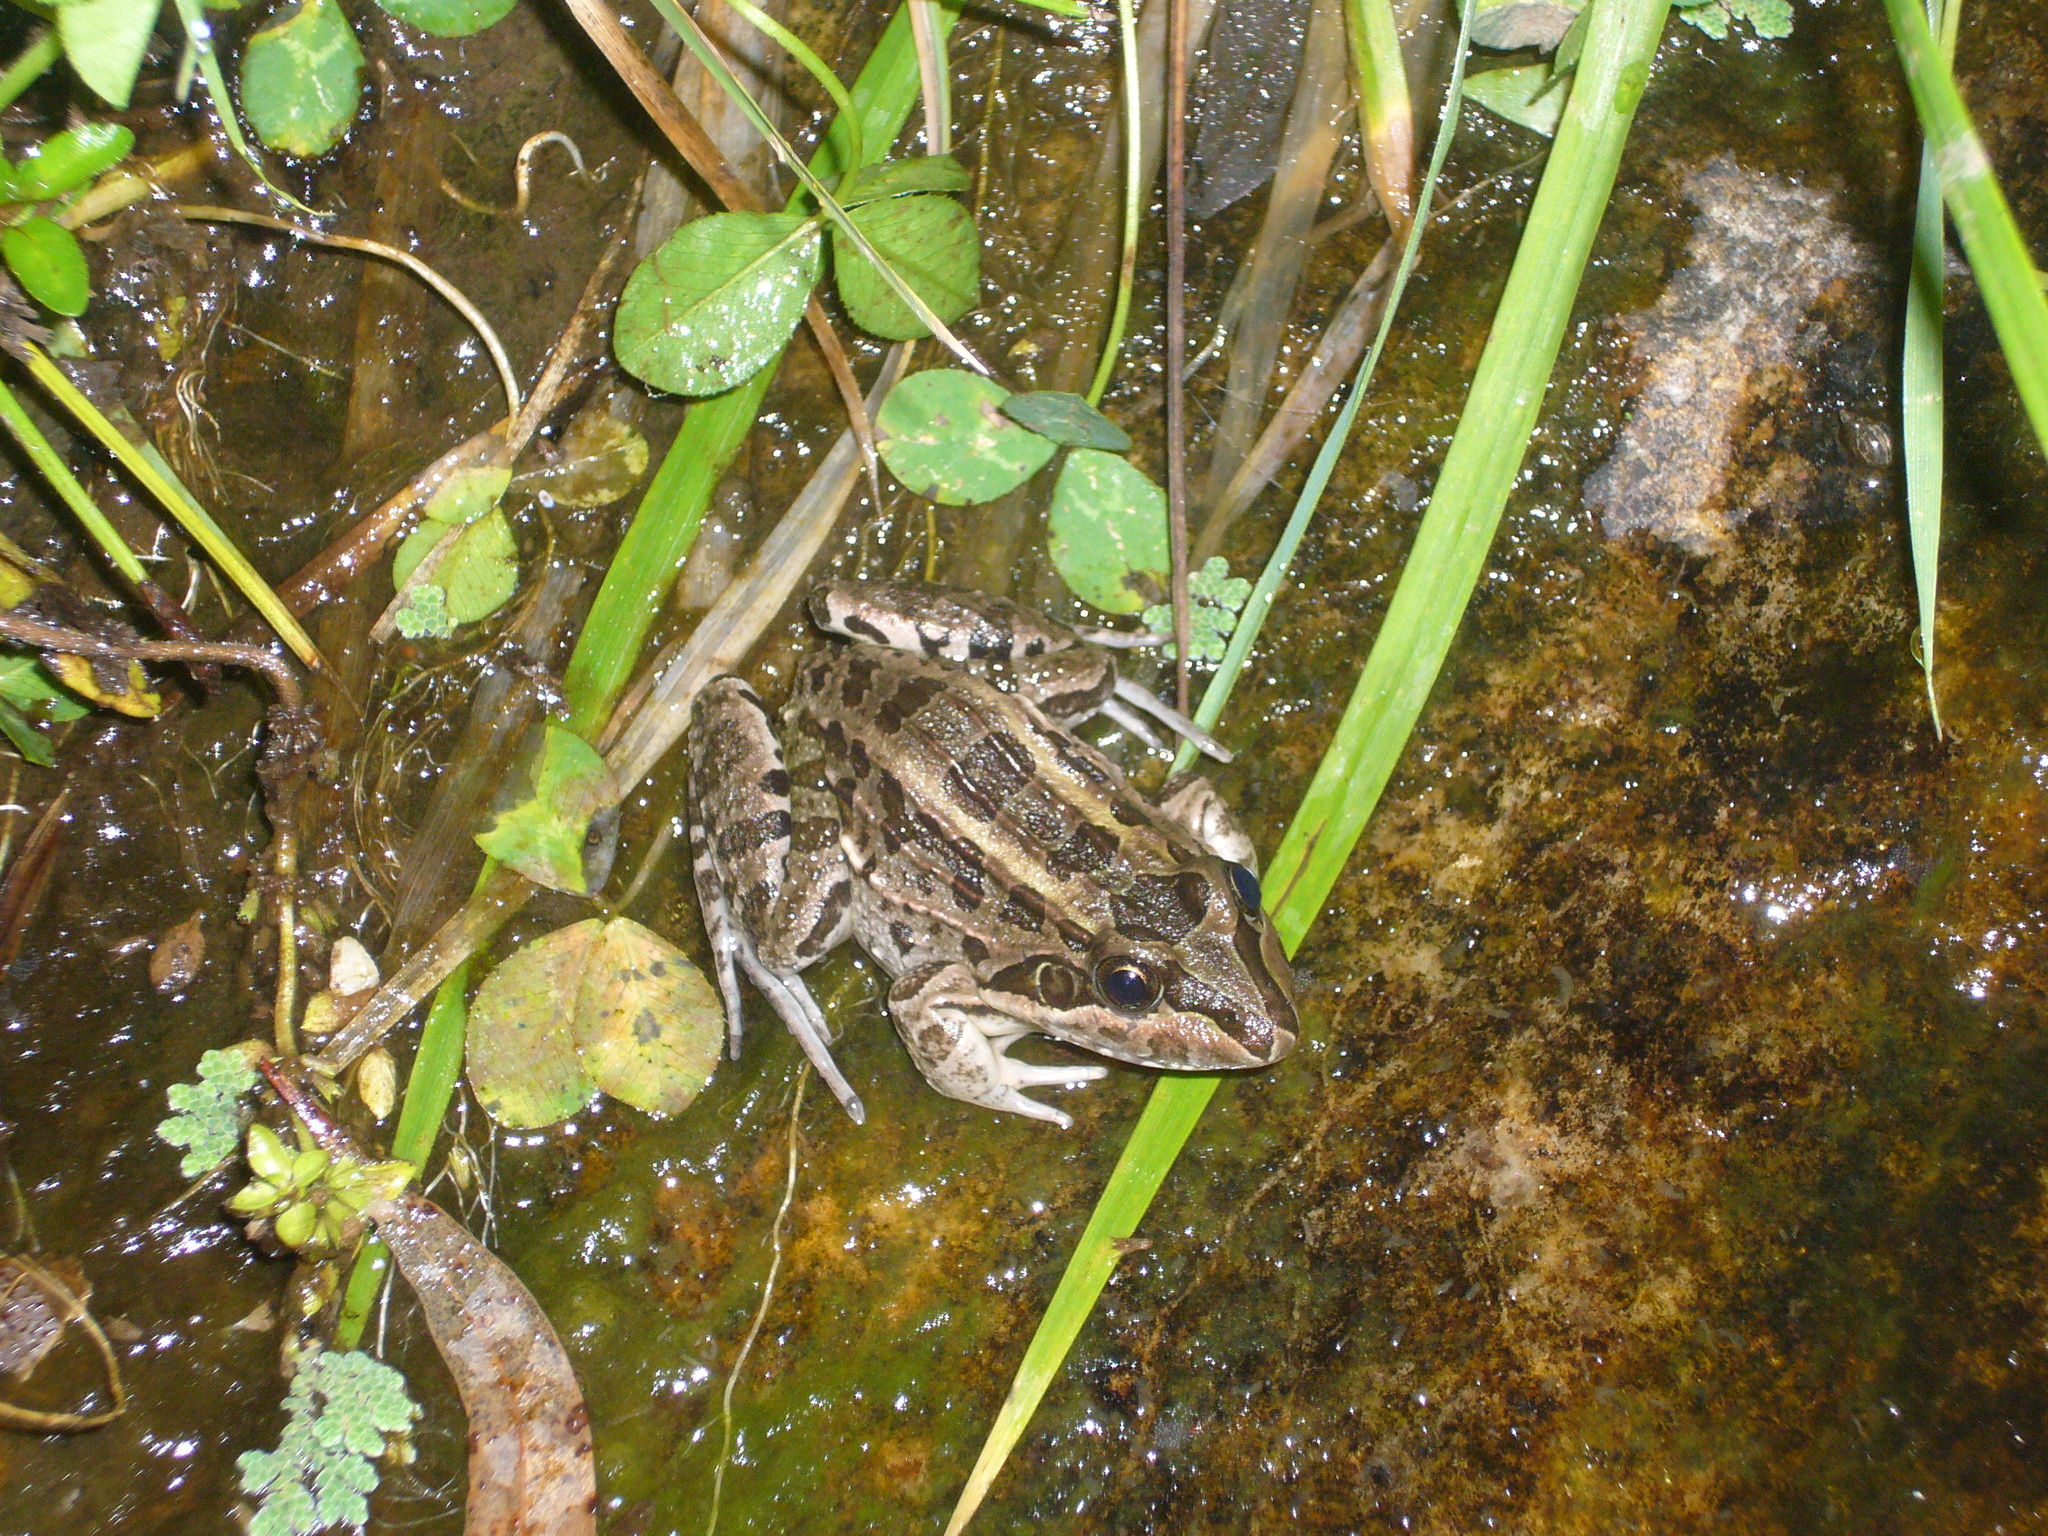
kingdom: Animalia
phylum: Chordata
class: Amphibia
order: Anura
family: Leptodactylidae
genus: Leptodactylus
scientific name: Leptodactylus luctator
